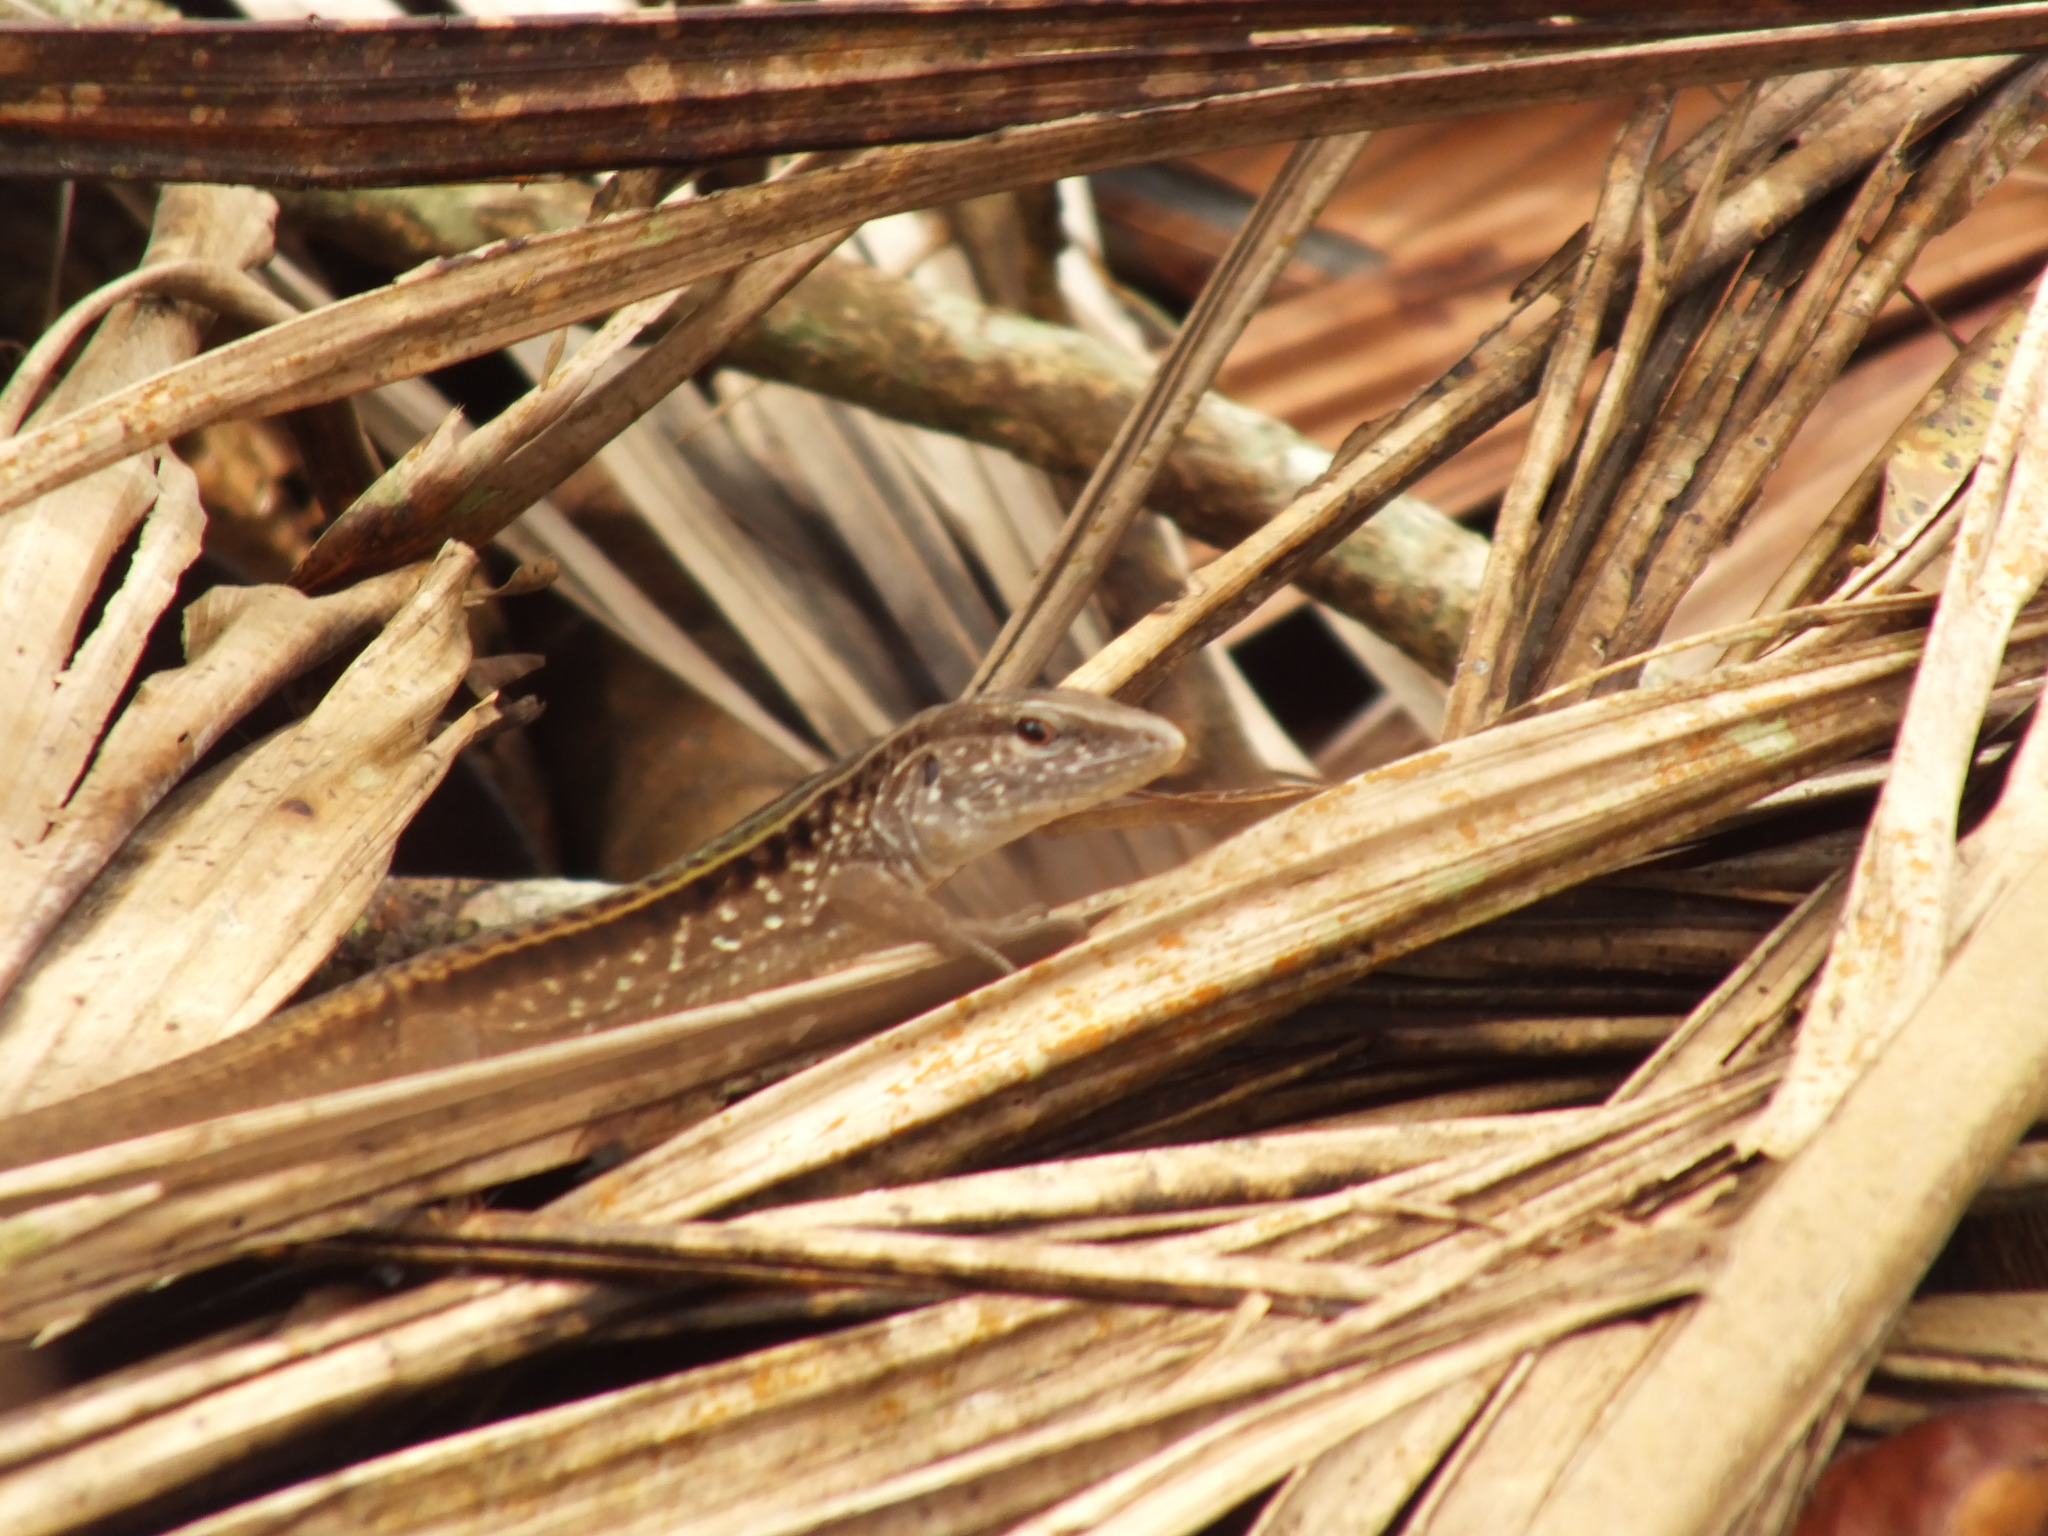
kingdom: Animalia
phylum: Chordata
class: Squamata
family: Teiidae
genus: Ameiva
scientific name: Ameiva ameiva
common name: Giant ameiva
